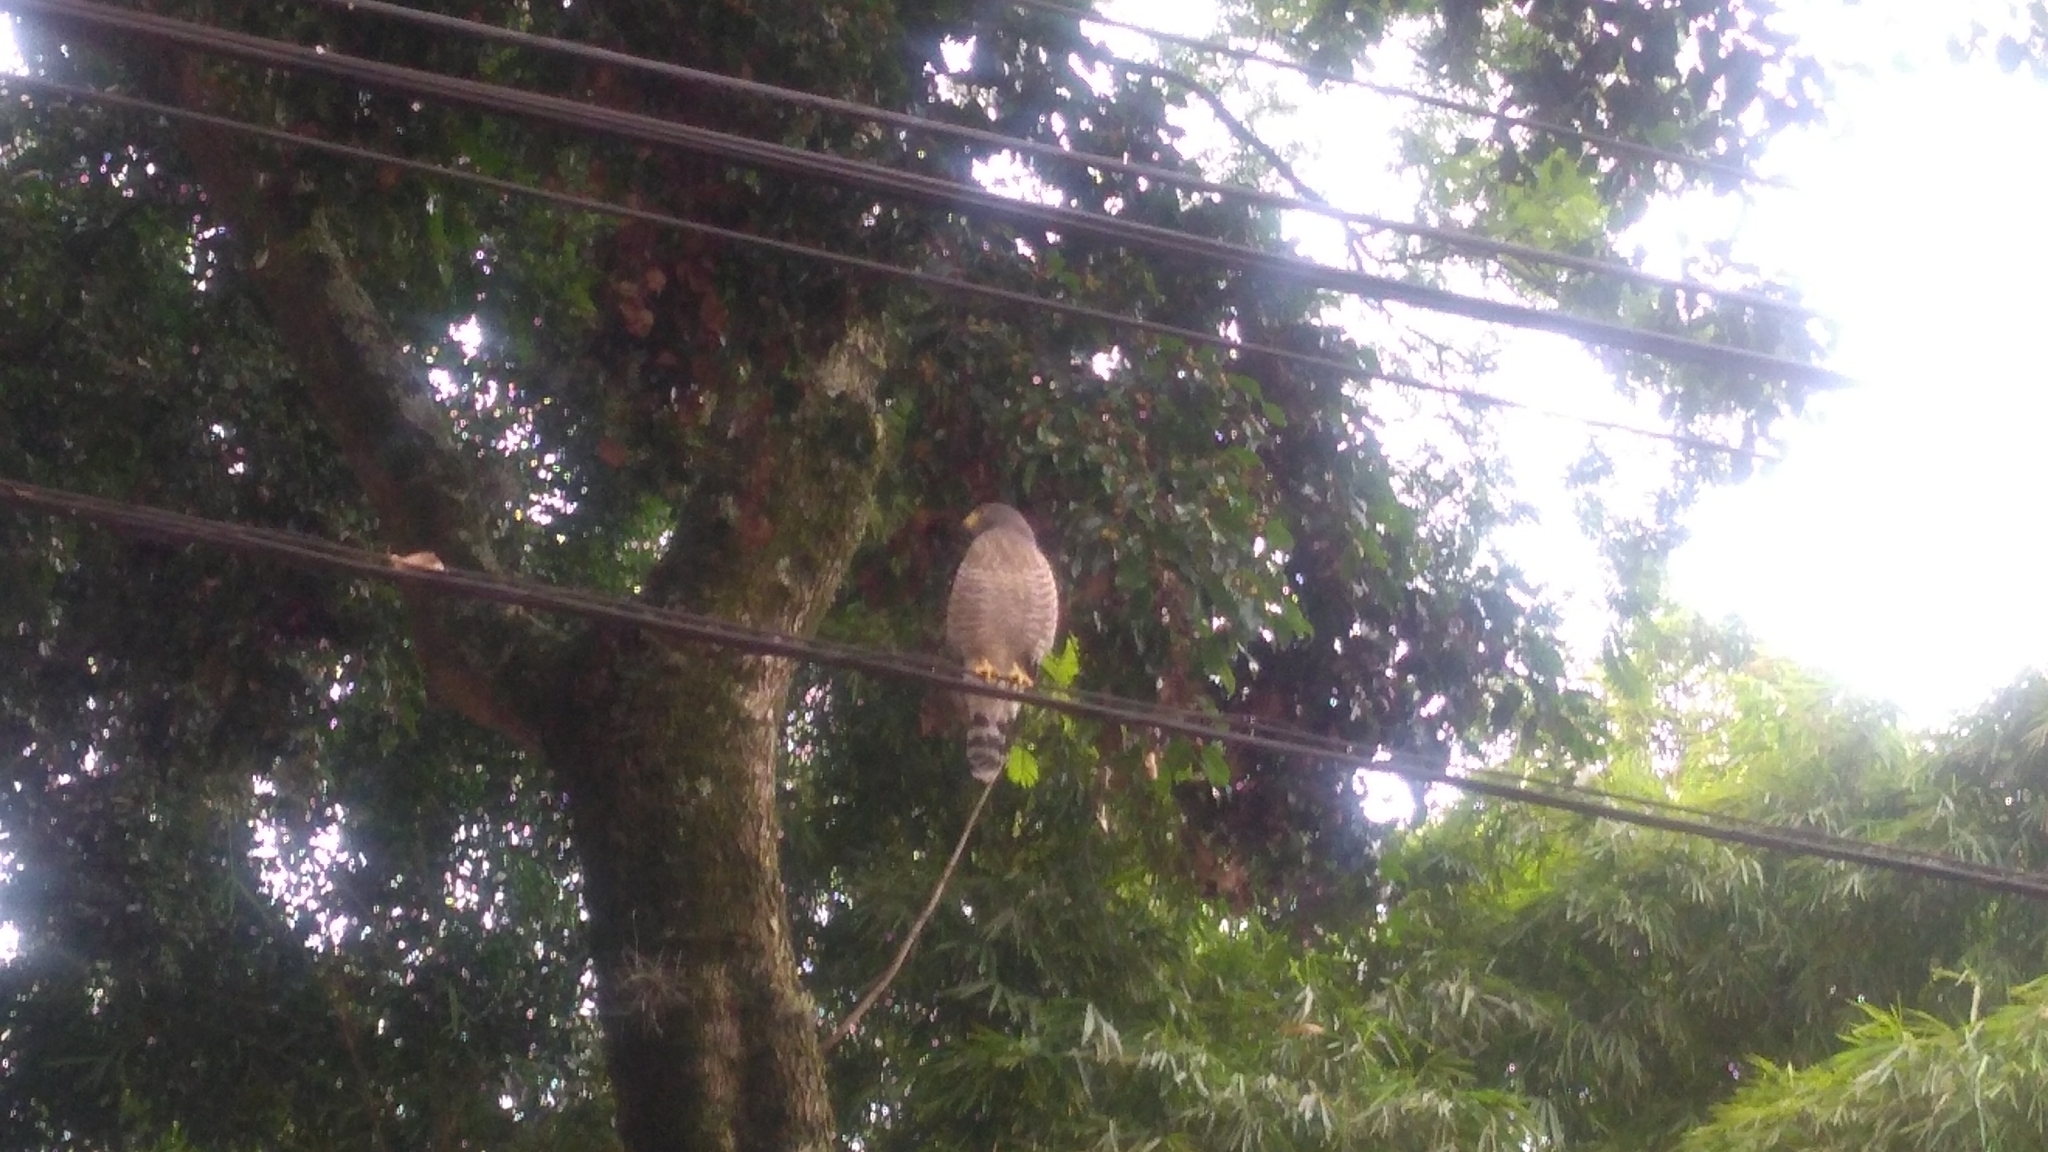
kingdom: Animalia
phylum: Chordata
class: Aves
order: Accipitriformes
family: Accipitridae
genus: Rupornis
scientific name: Rupornis magnirostris
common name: Roadside hawk
